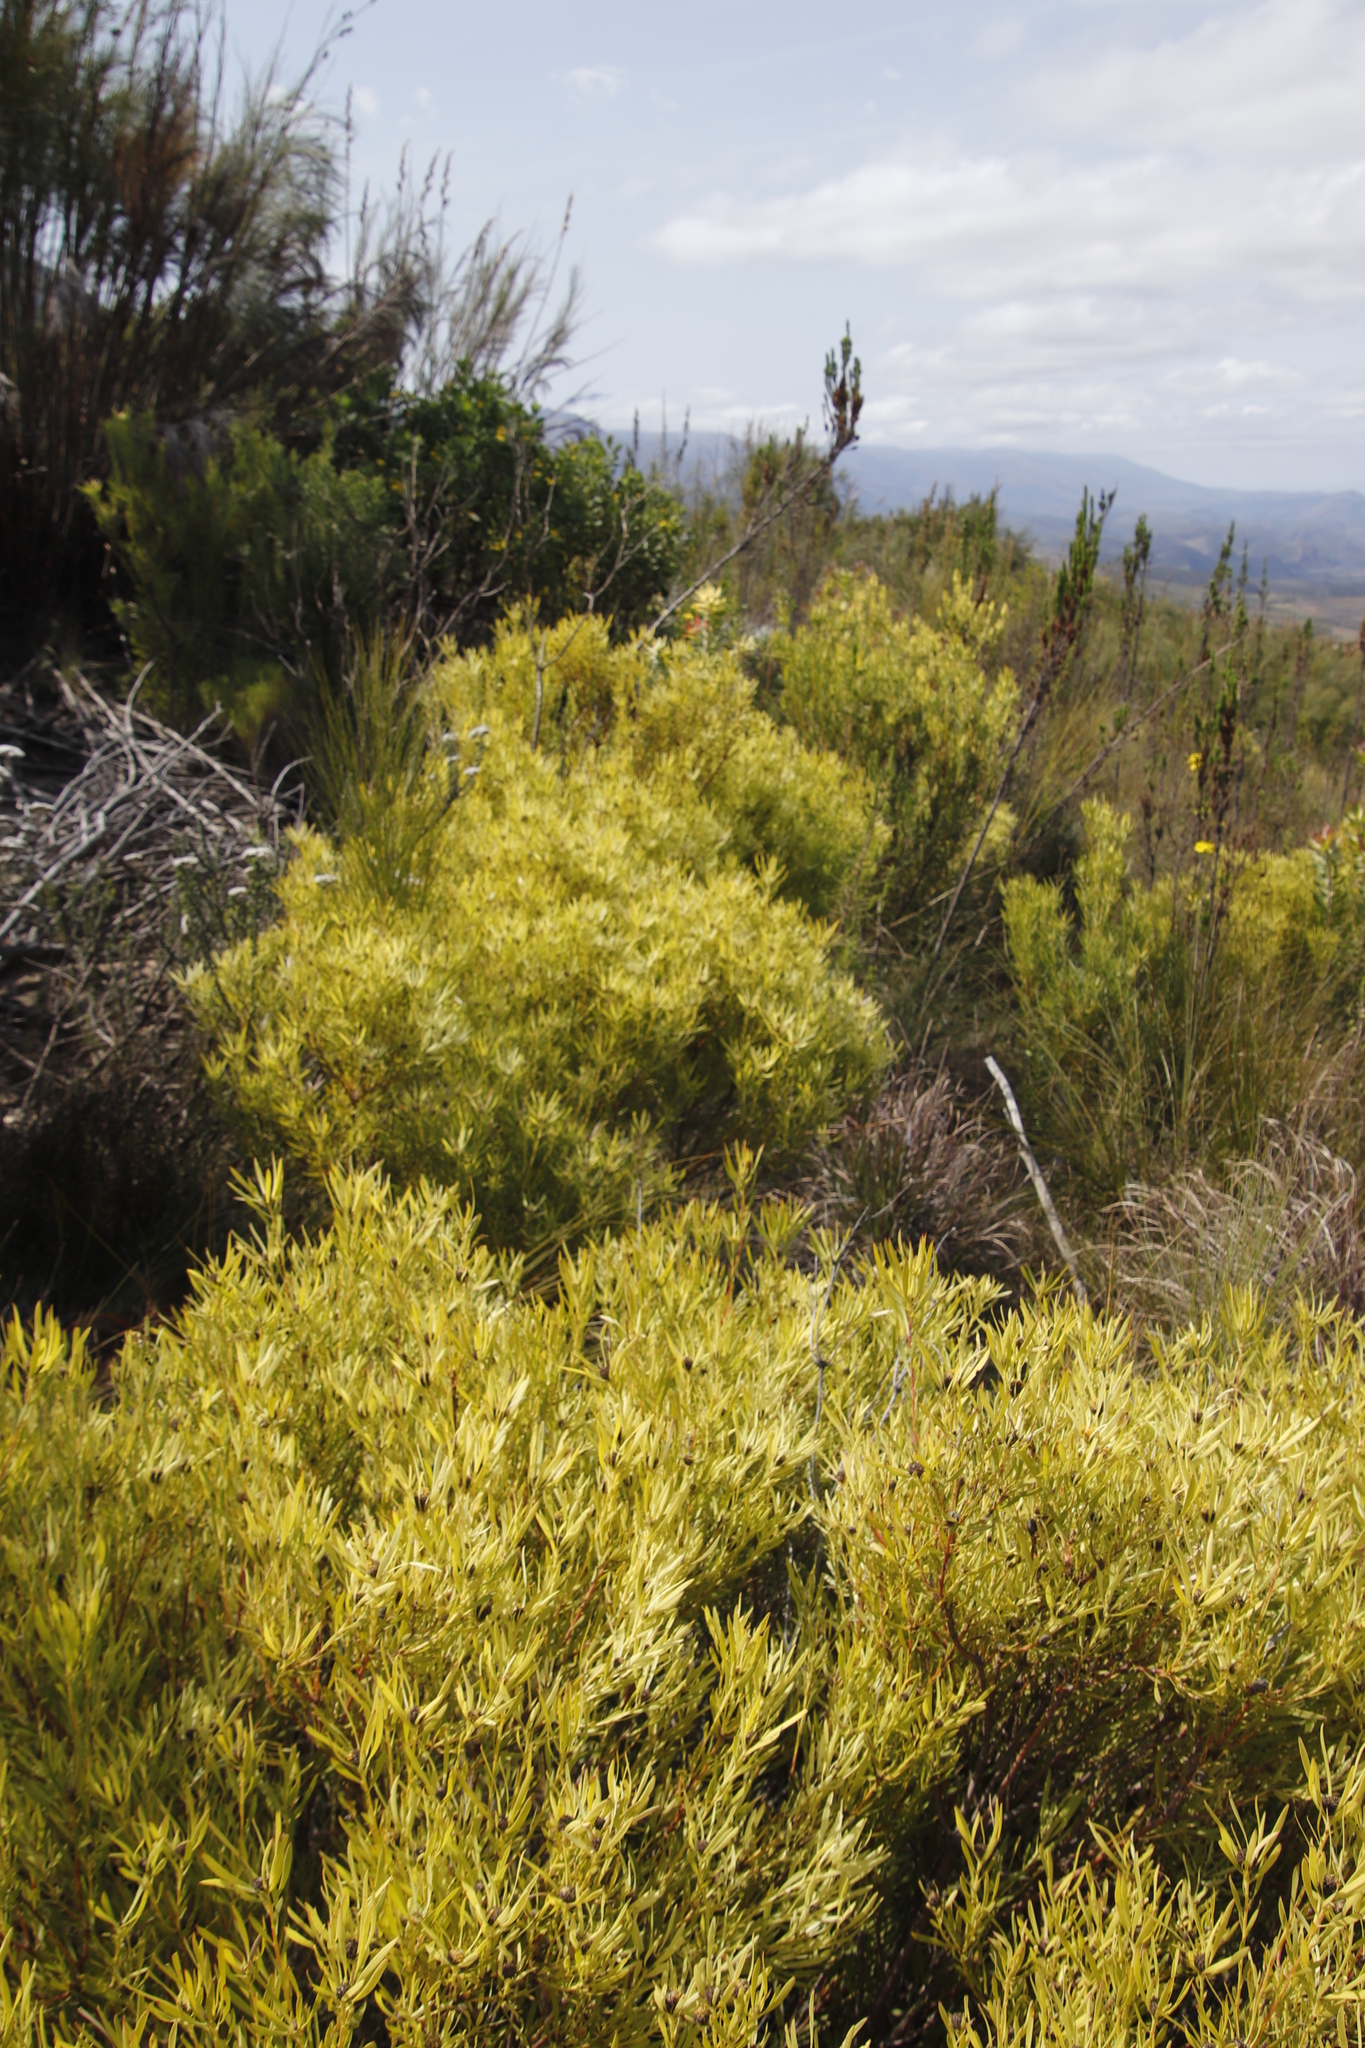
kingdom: Plantae
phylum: Tracheophyta
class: Magnoliopsida
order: Proteales
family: Proteaceae
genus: Leucadendron
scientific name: Leucadendron salignum
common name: Common sunshine conebush
